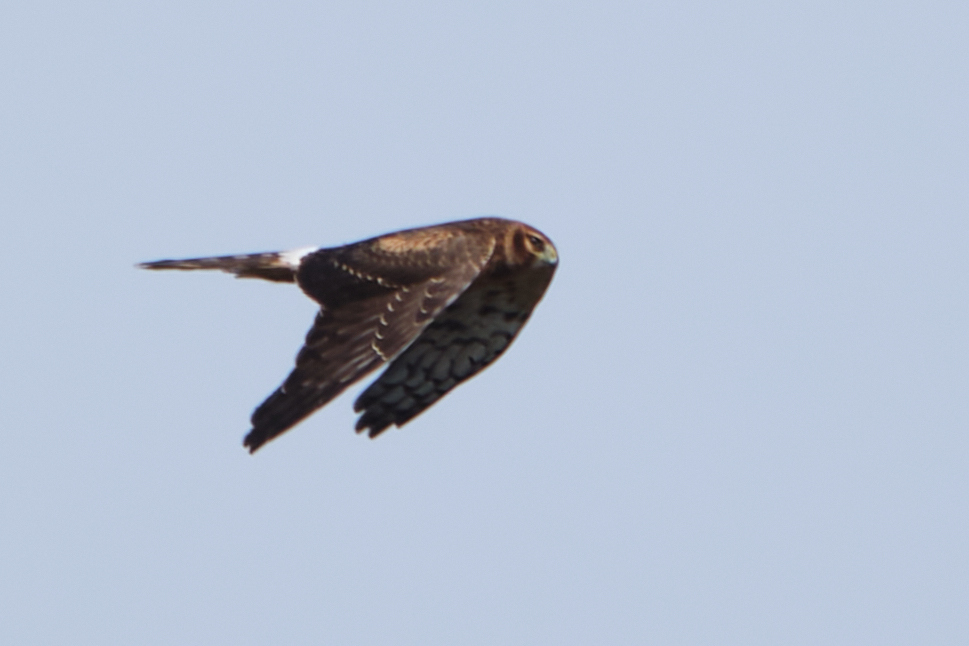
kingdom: Animalia
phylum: Chordata
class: Aves
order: Accipitriformes
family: Accipitridae
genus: Circus
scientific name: Circus cyaneus
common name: Hen harrier
